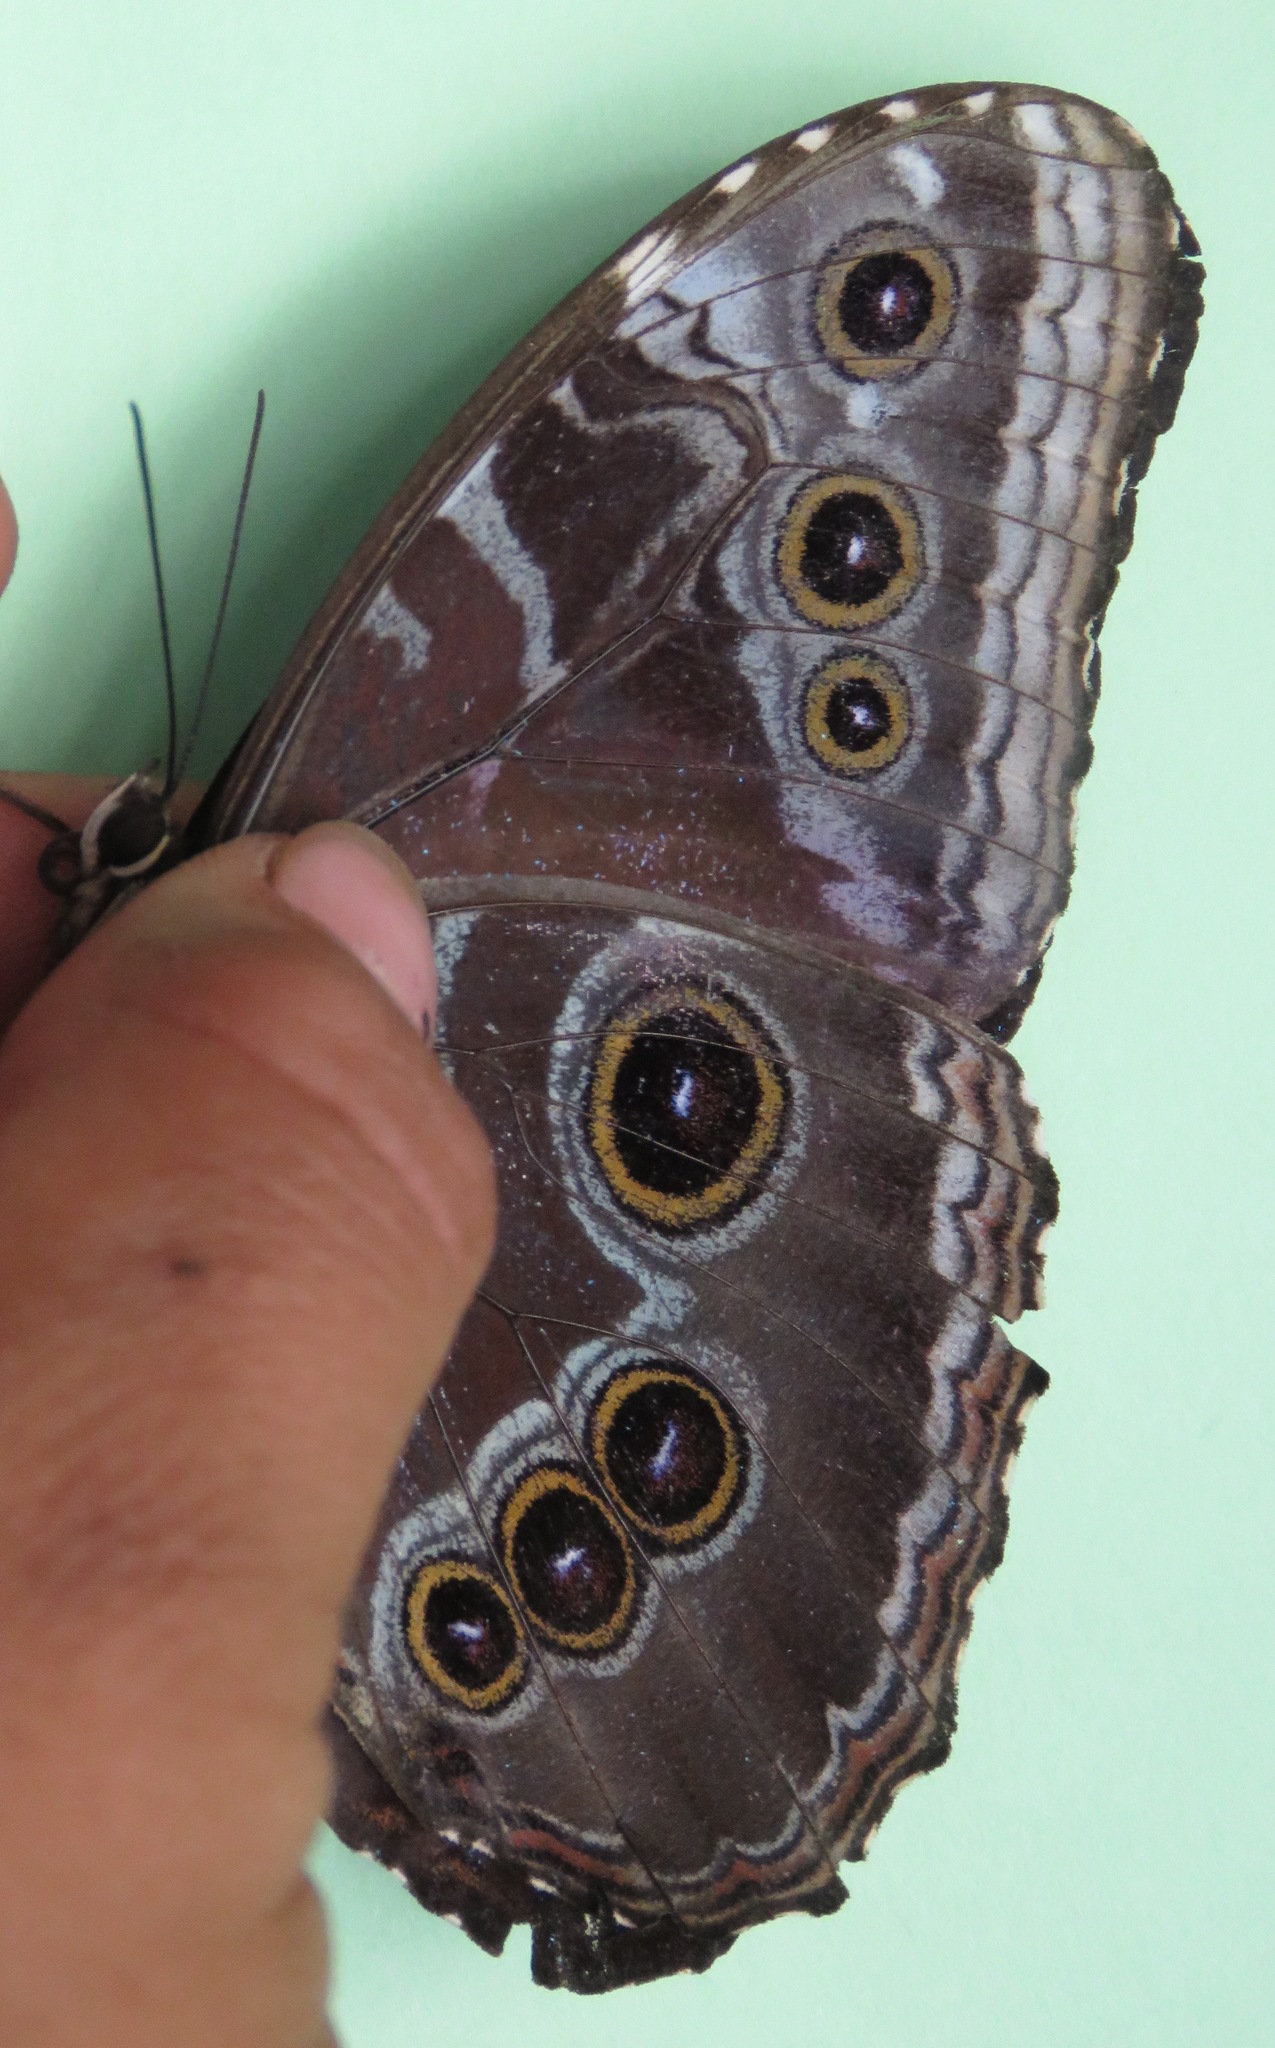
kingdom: Animalia
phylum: Arthropoda
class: Insecta
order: Lepidoptera
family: Nymphalidae
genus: Morpho
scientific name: Morpho helenor
